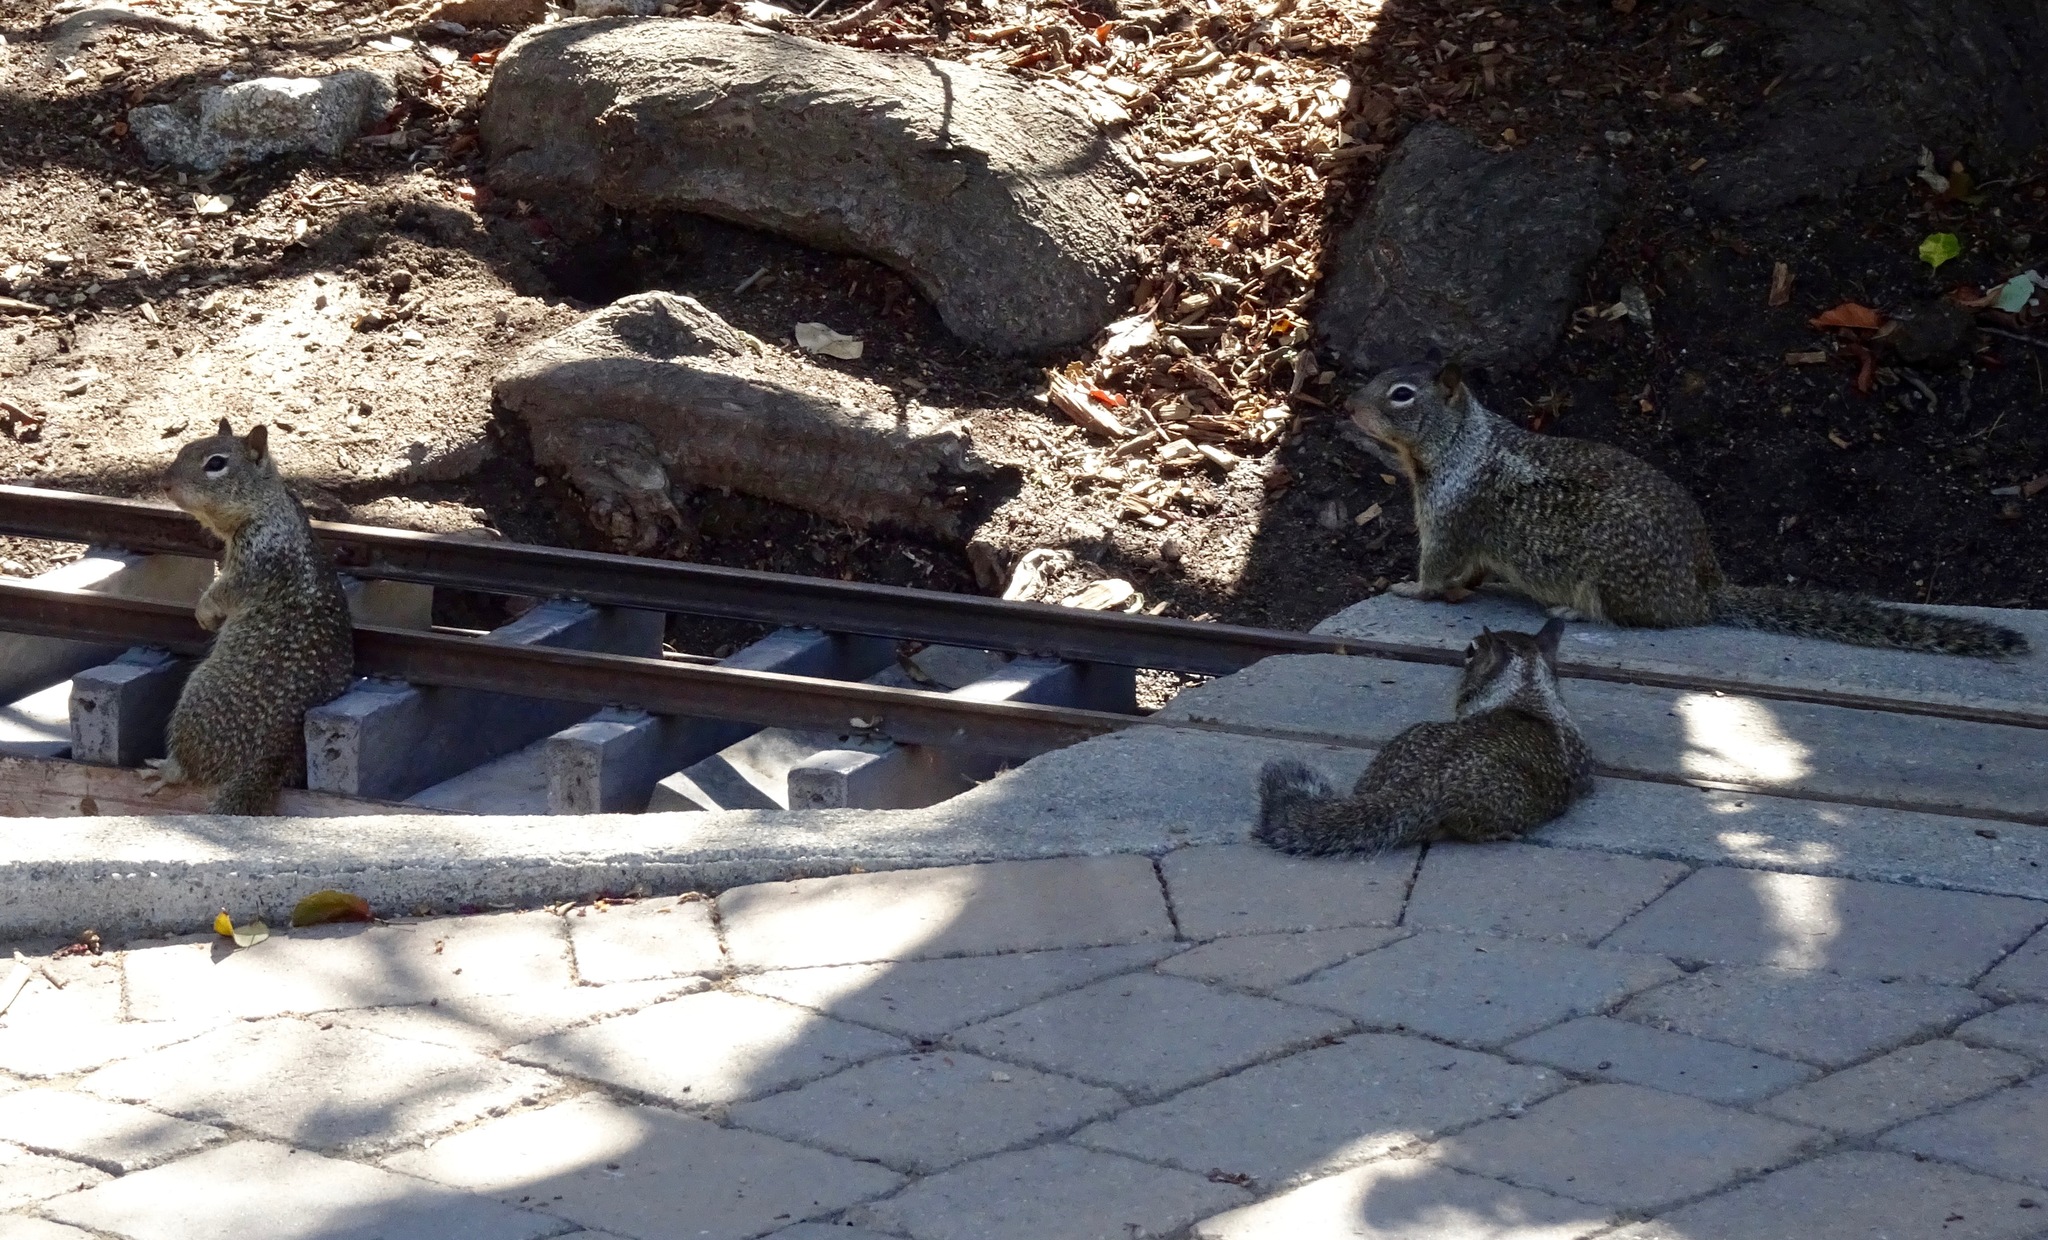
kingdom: Animalia
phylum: Chordata
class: Mammalia
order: Rodentia
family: Sciuridae
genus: Otospermophilus
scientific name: Otospermophilus beecheyi
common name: California ground squirrel
